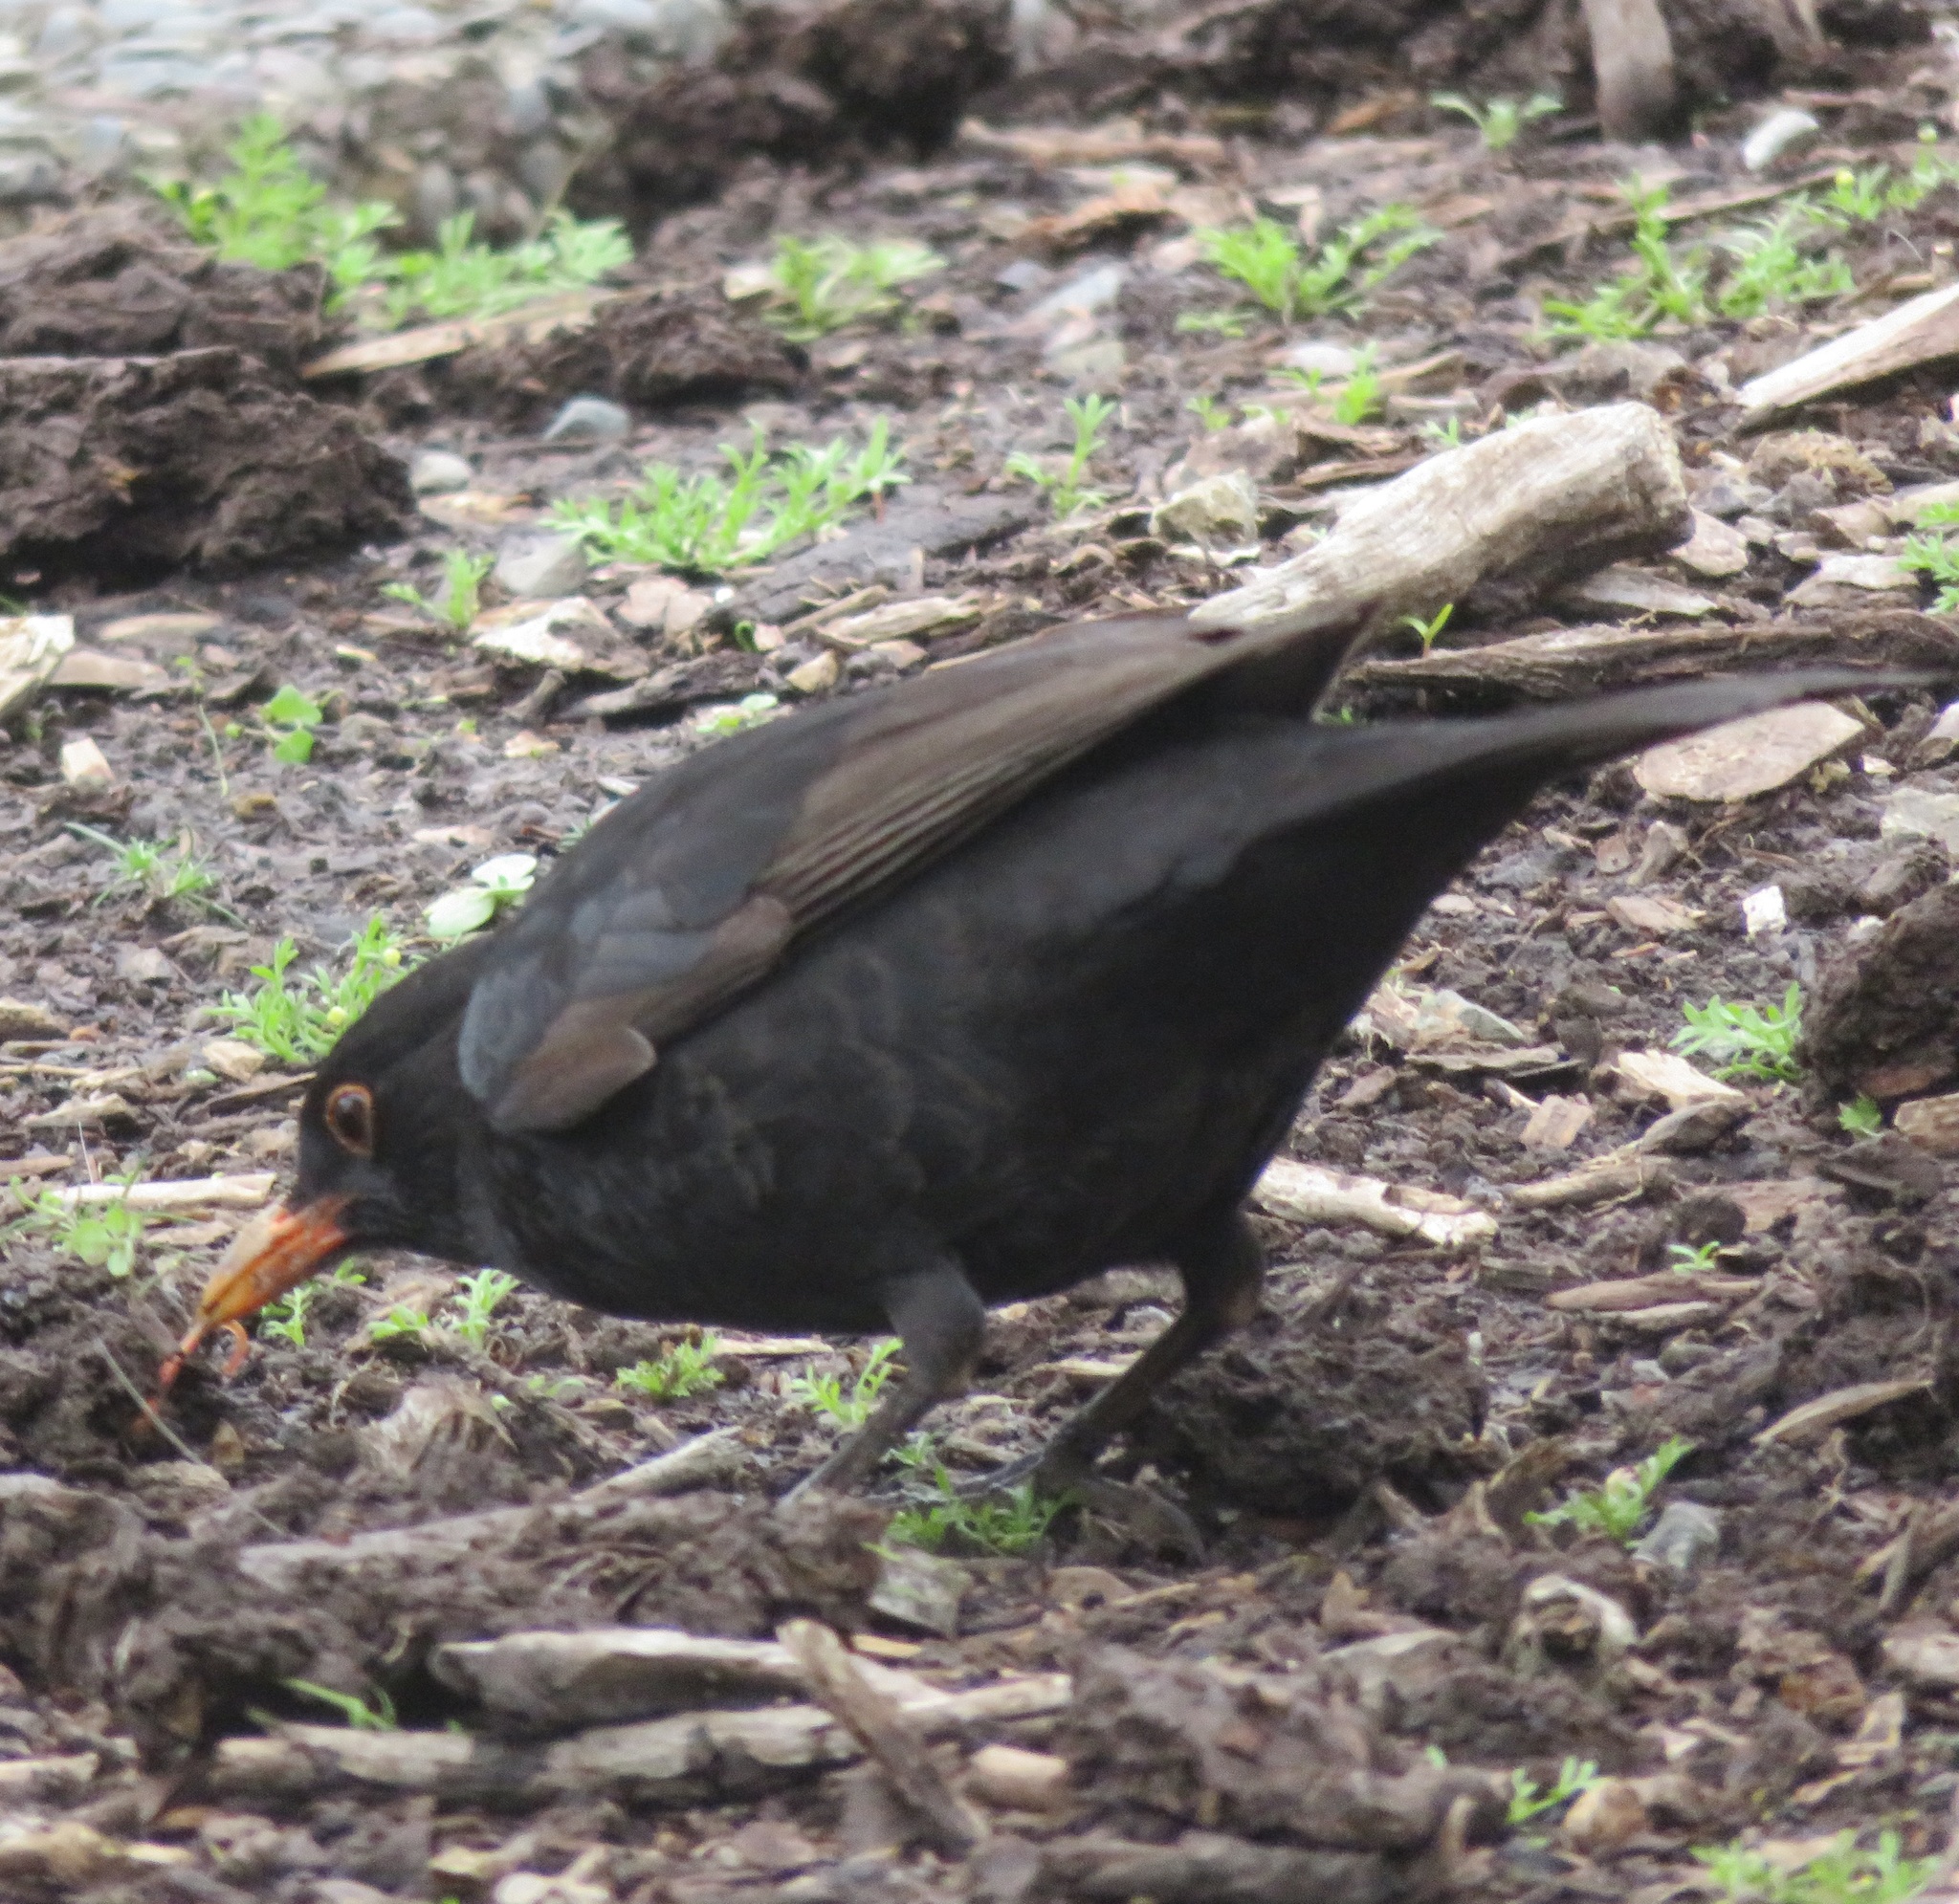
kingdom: Animalia
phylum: Chordata
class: Aves
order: Passeriformes
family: Turdidae
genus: Turdus
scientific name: Turdus merula
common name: Common blackbird
